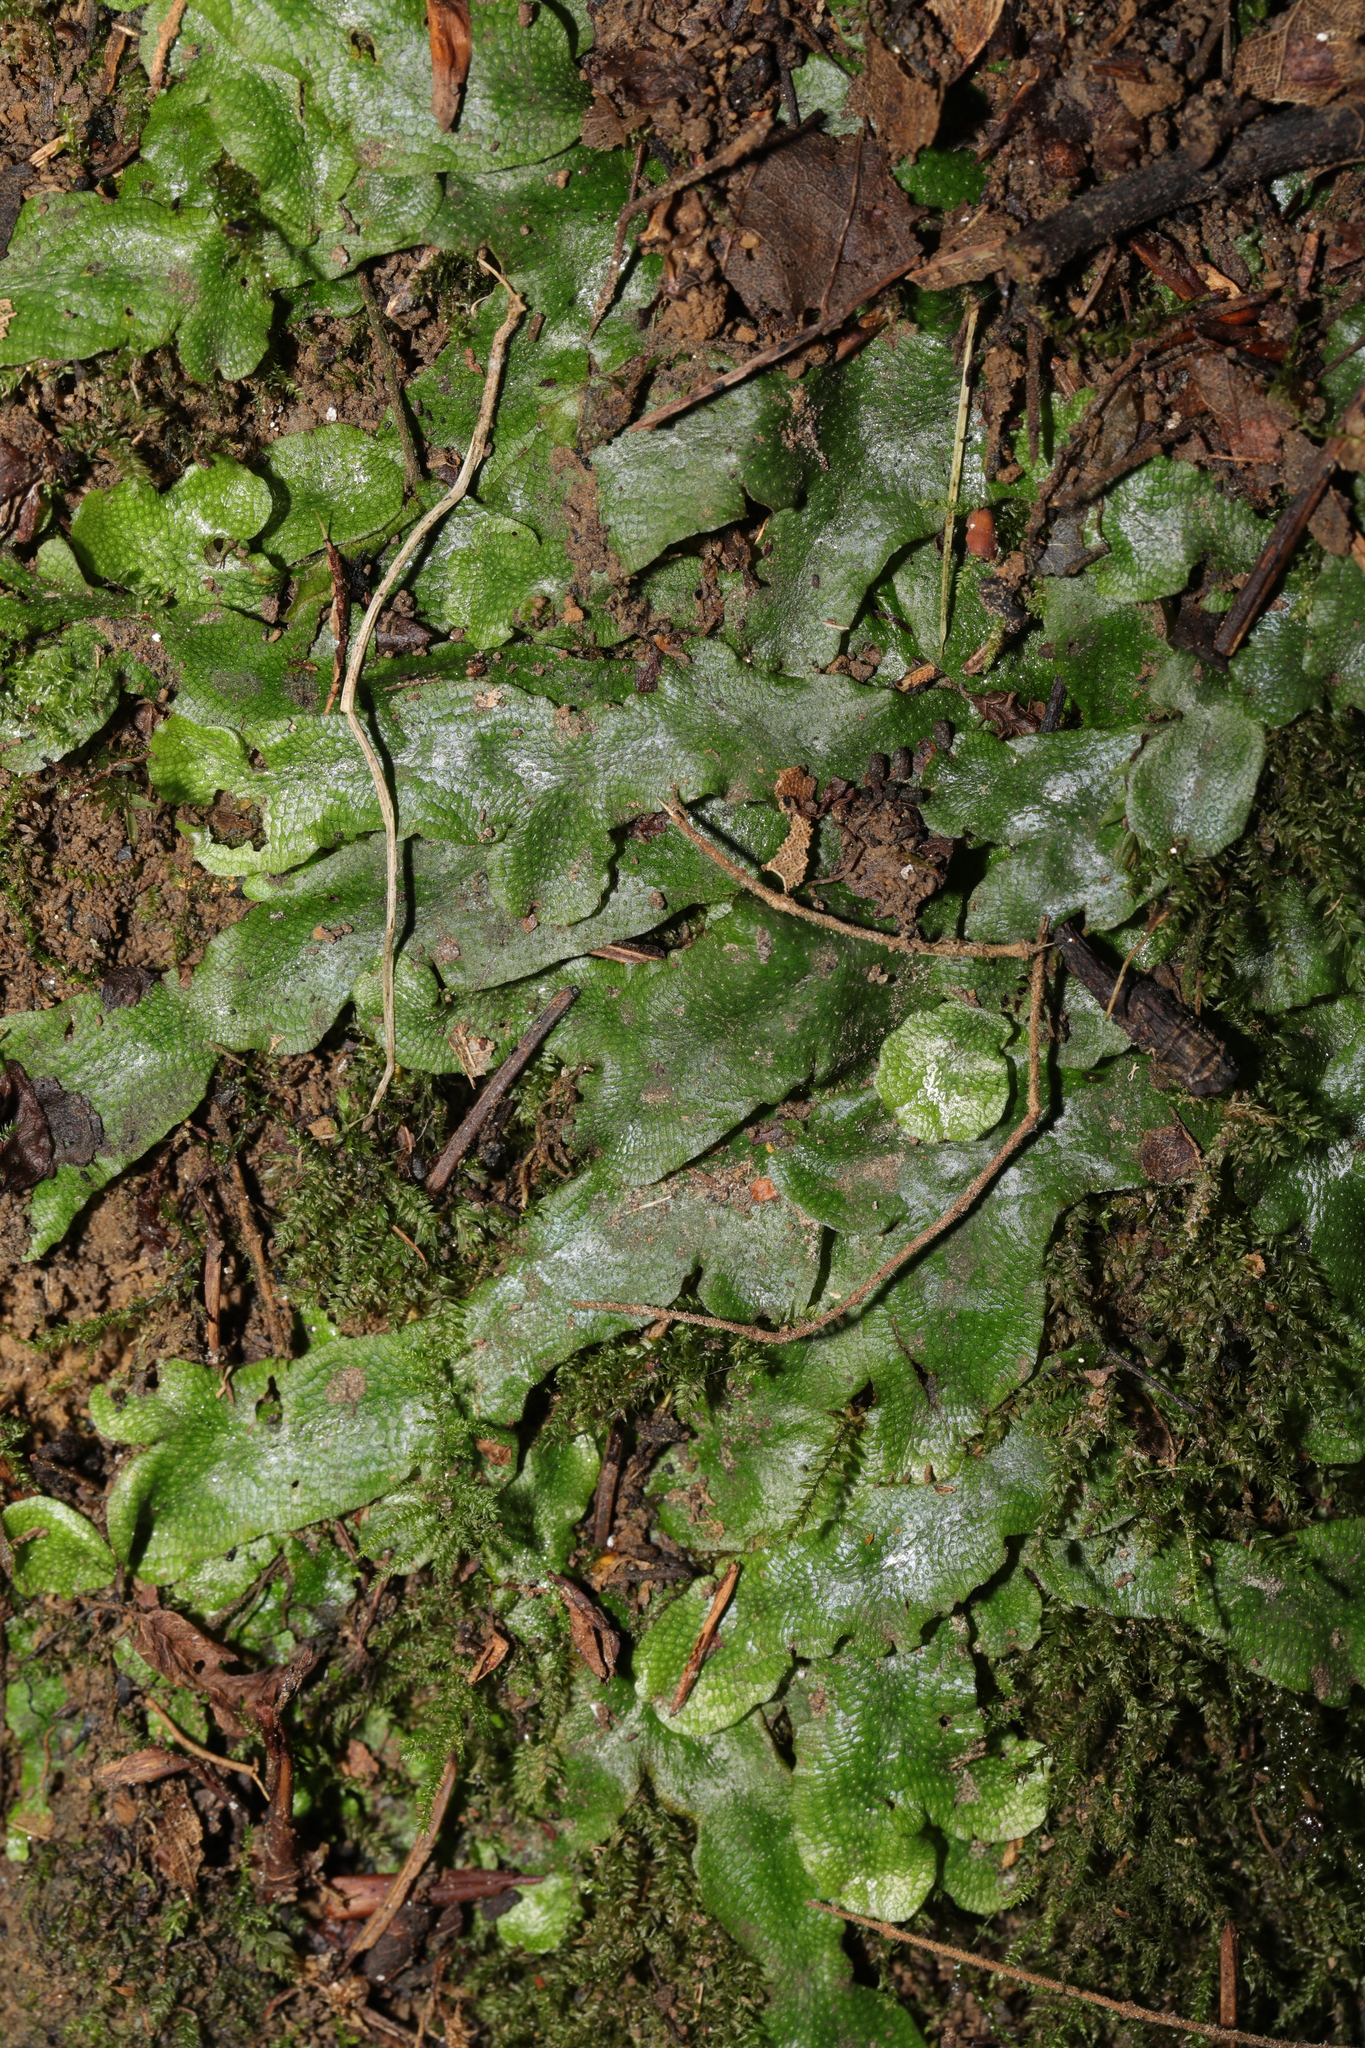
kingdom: Plantae
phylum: Marchantiophyta
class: Marchantiopsida
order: Marchantiales
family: Conocephalaceae
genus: Conocephalum
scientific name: Conocephalum salebrosum
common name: Cat-tongue liverwort
